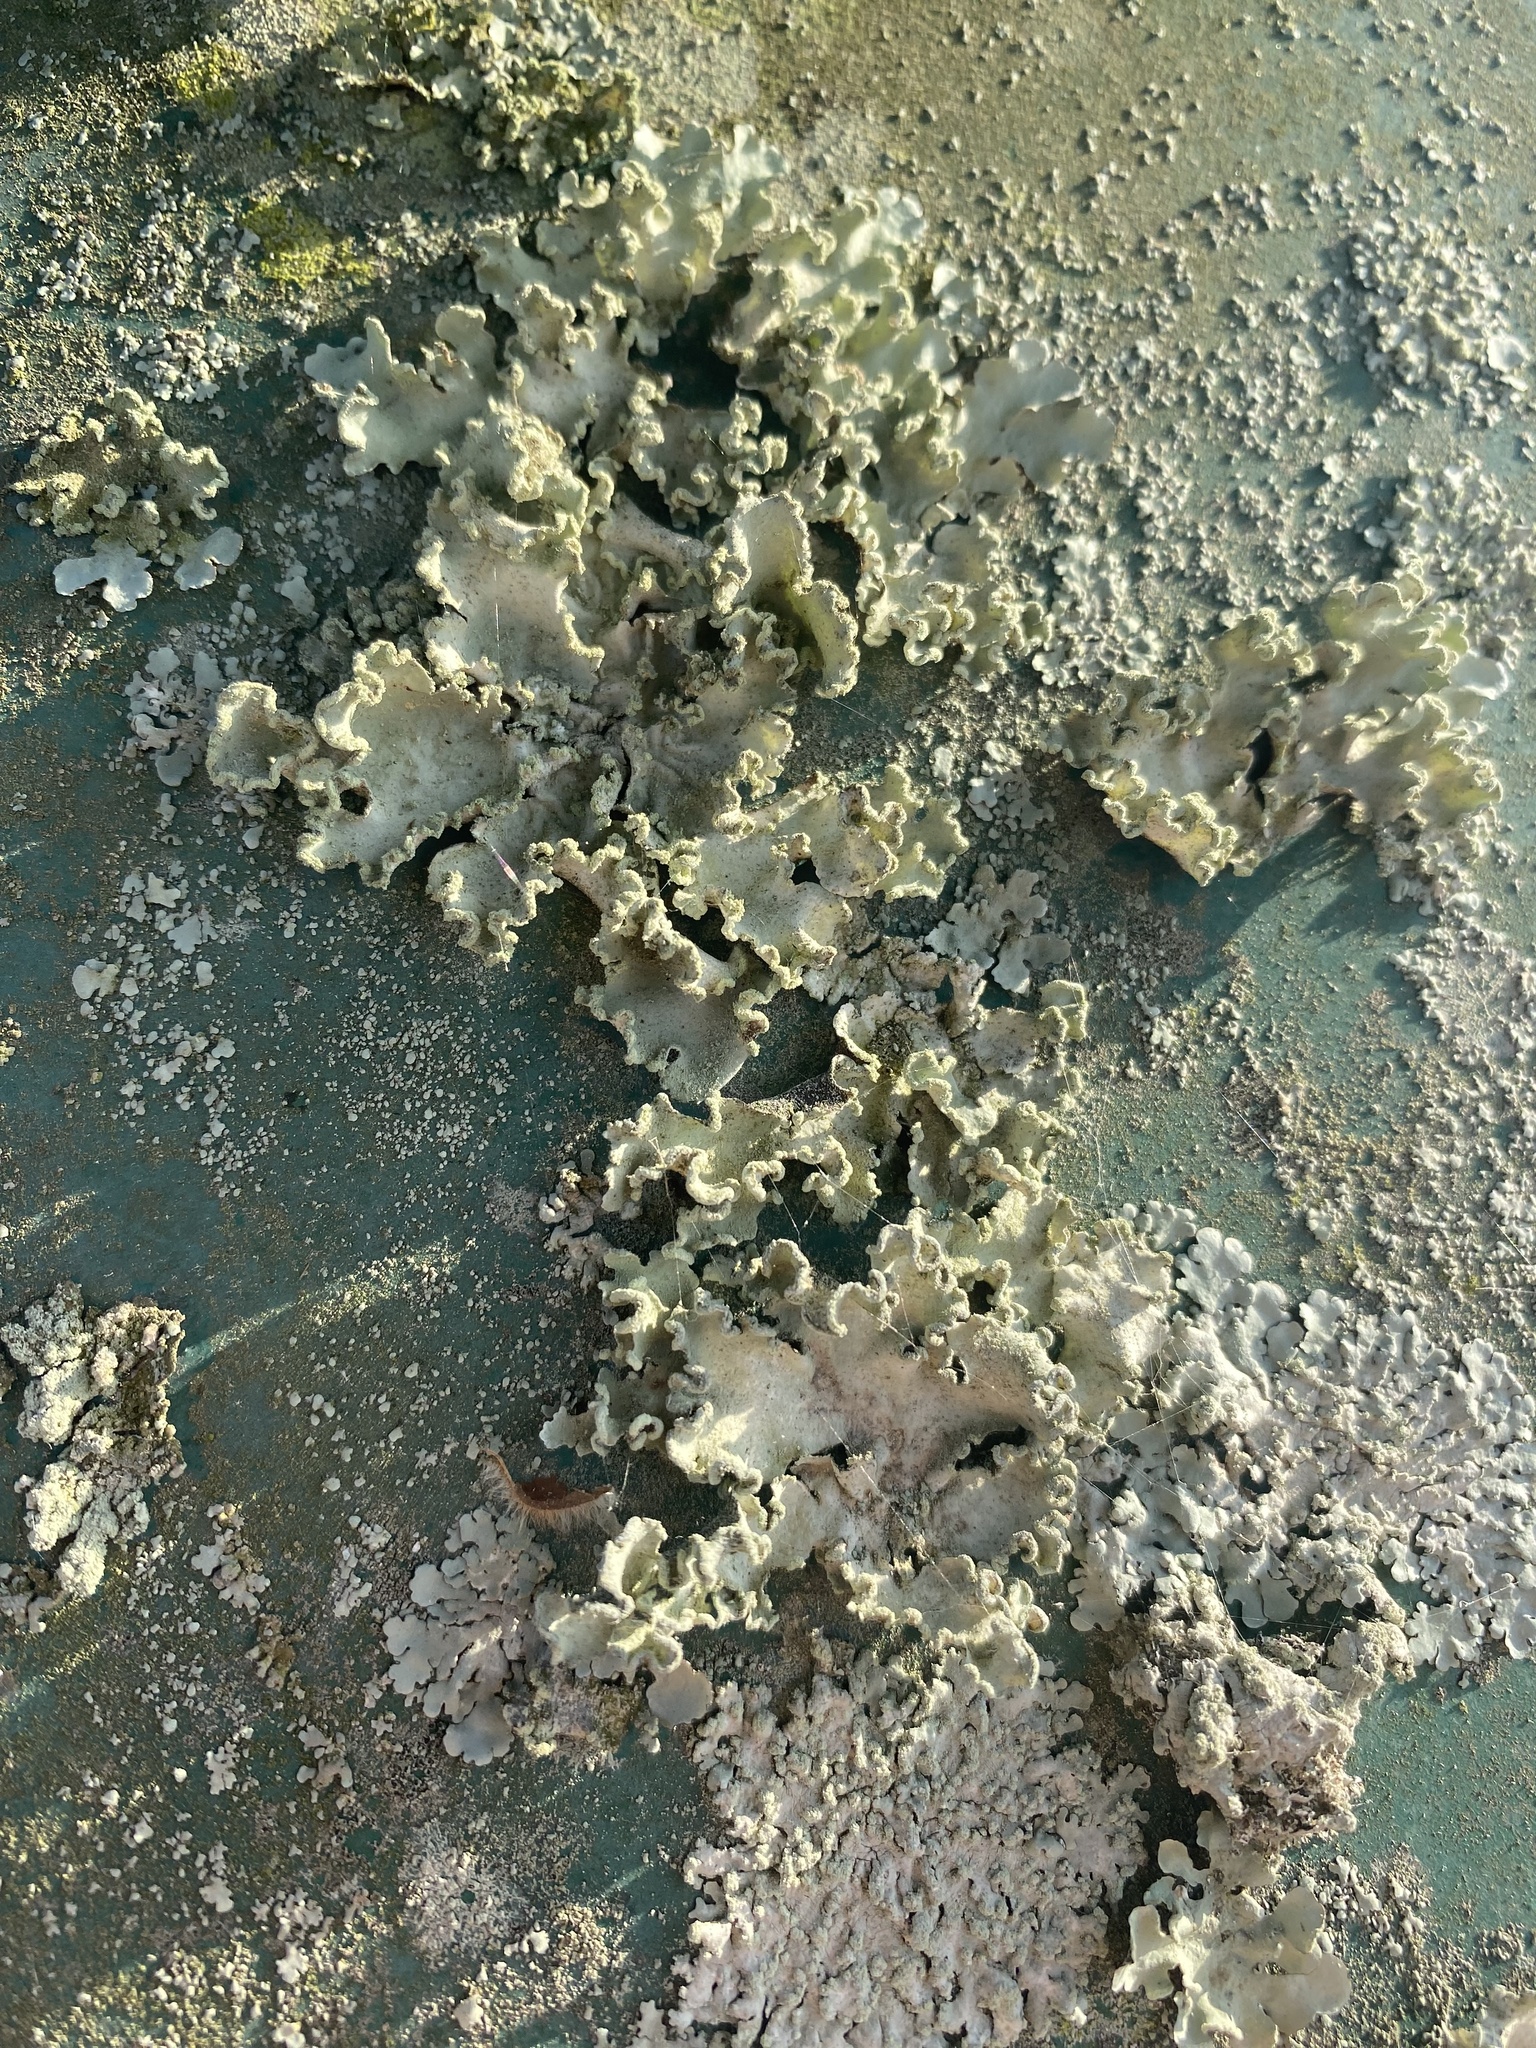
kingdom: Fungi
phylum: Ascomycota
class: Lecanoromycetes
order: Lecanorales
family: Parmeliaceae
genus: Parmotrema
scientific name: Parmotrema austrosinense
